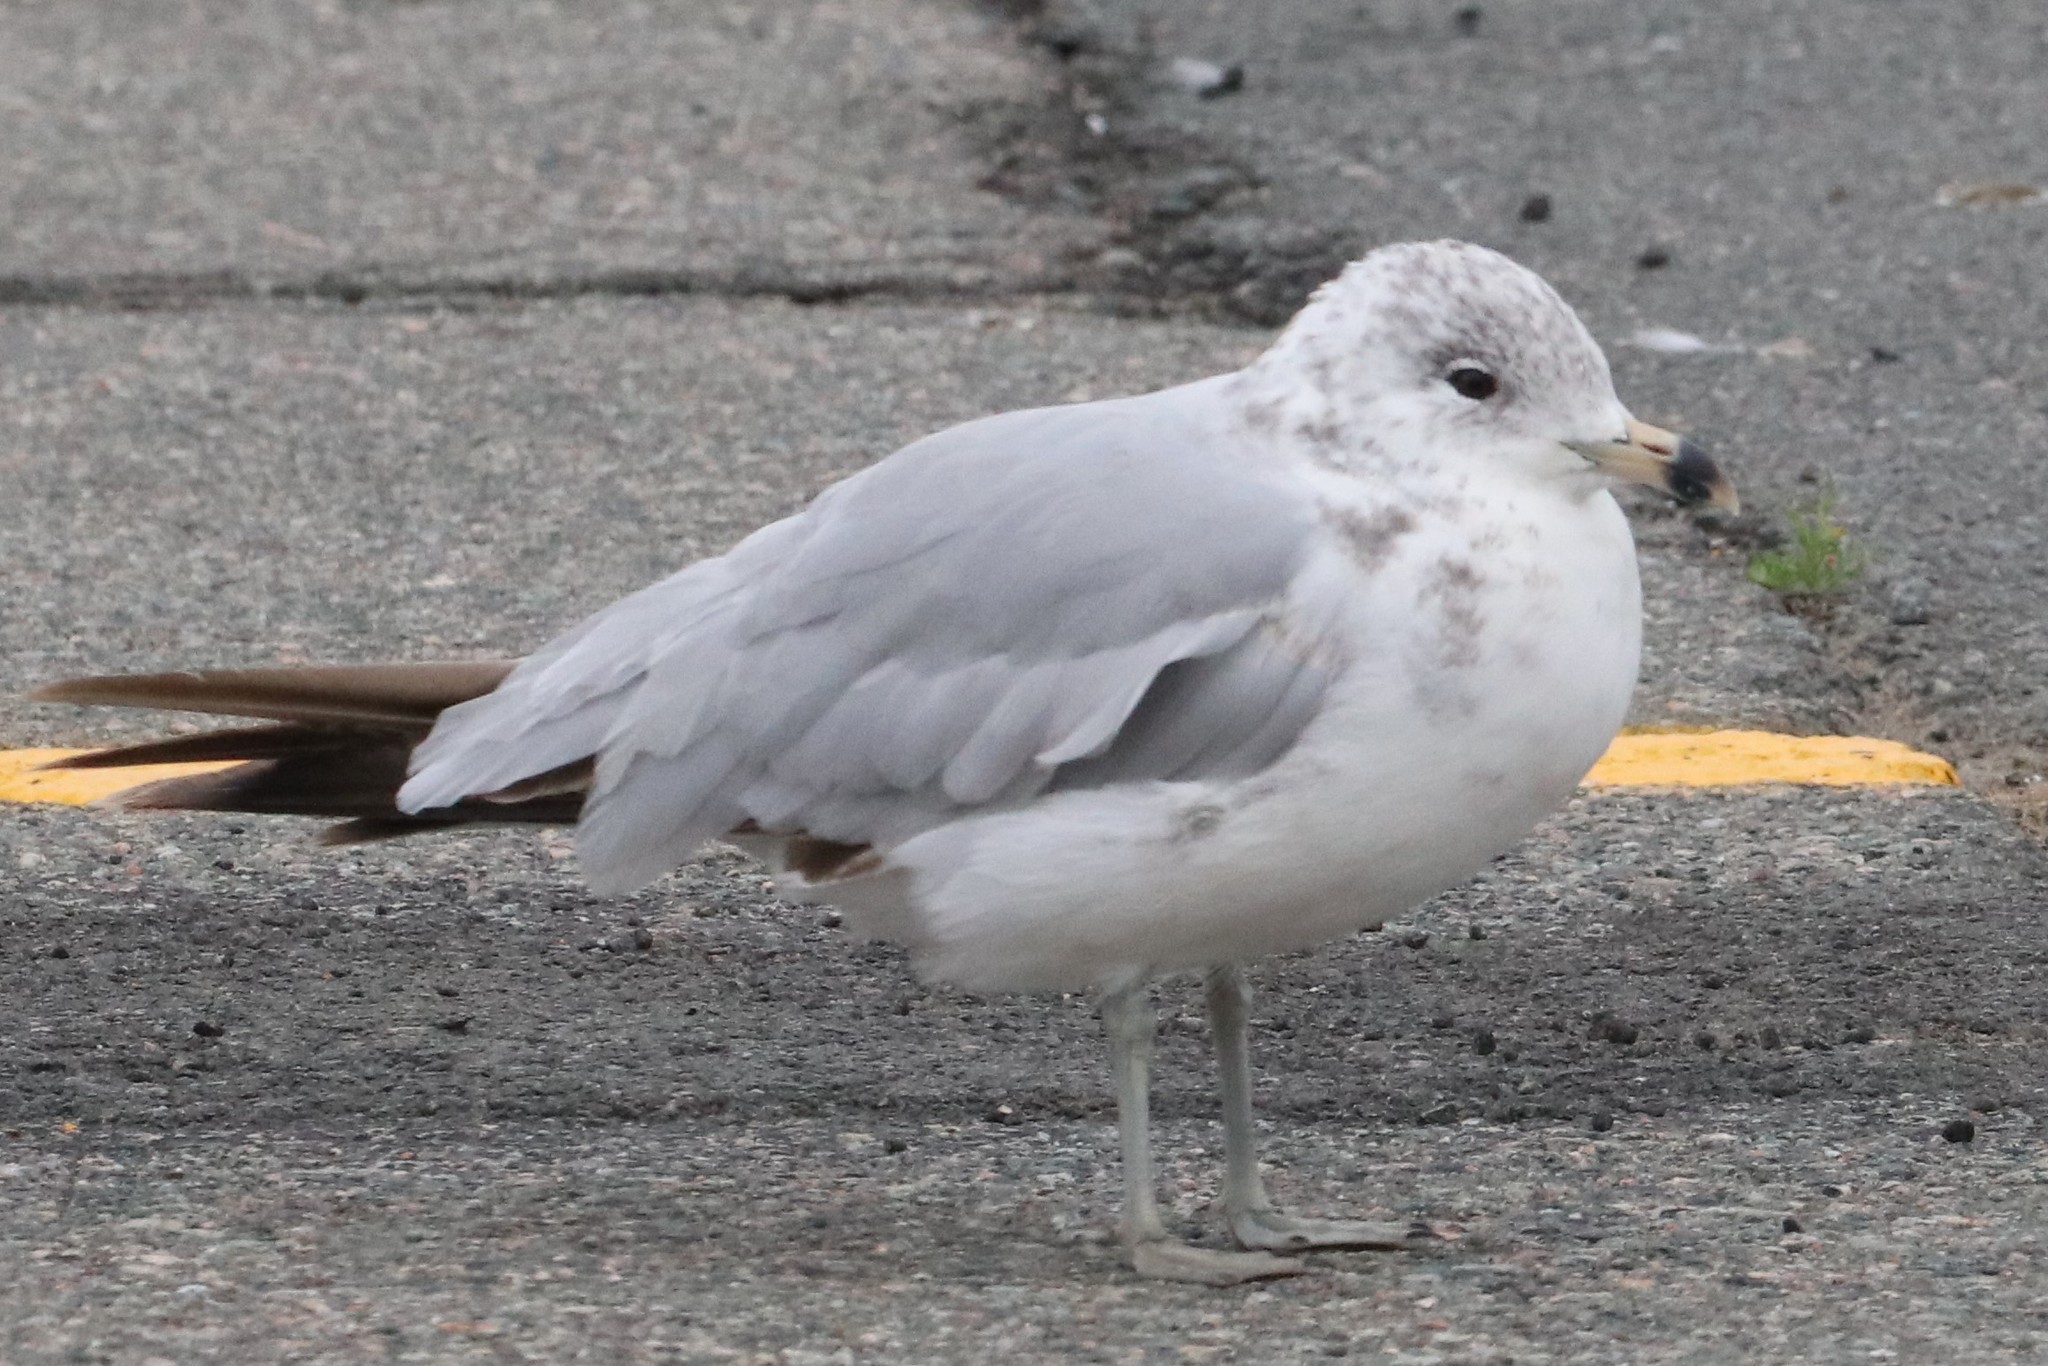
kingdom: Animalia
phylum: Chordata
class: Aves
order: Charadriiformes
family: Laridae
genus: Larus
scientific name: Larus delawarensis
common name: Ring-billed gull
